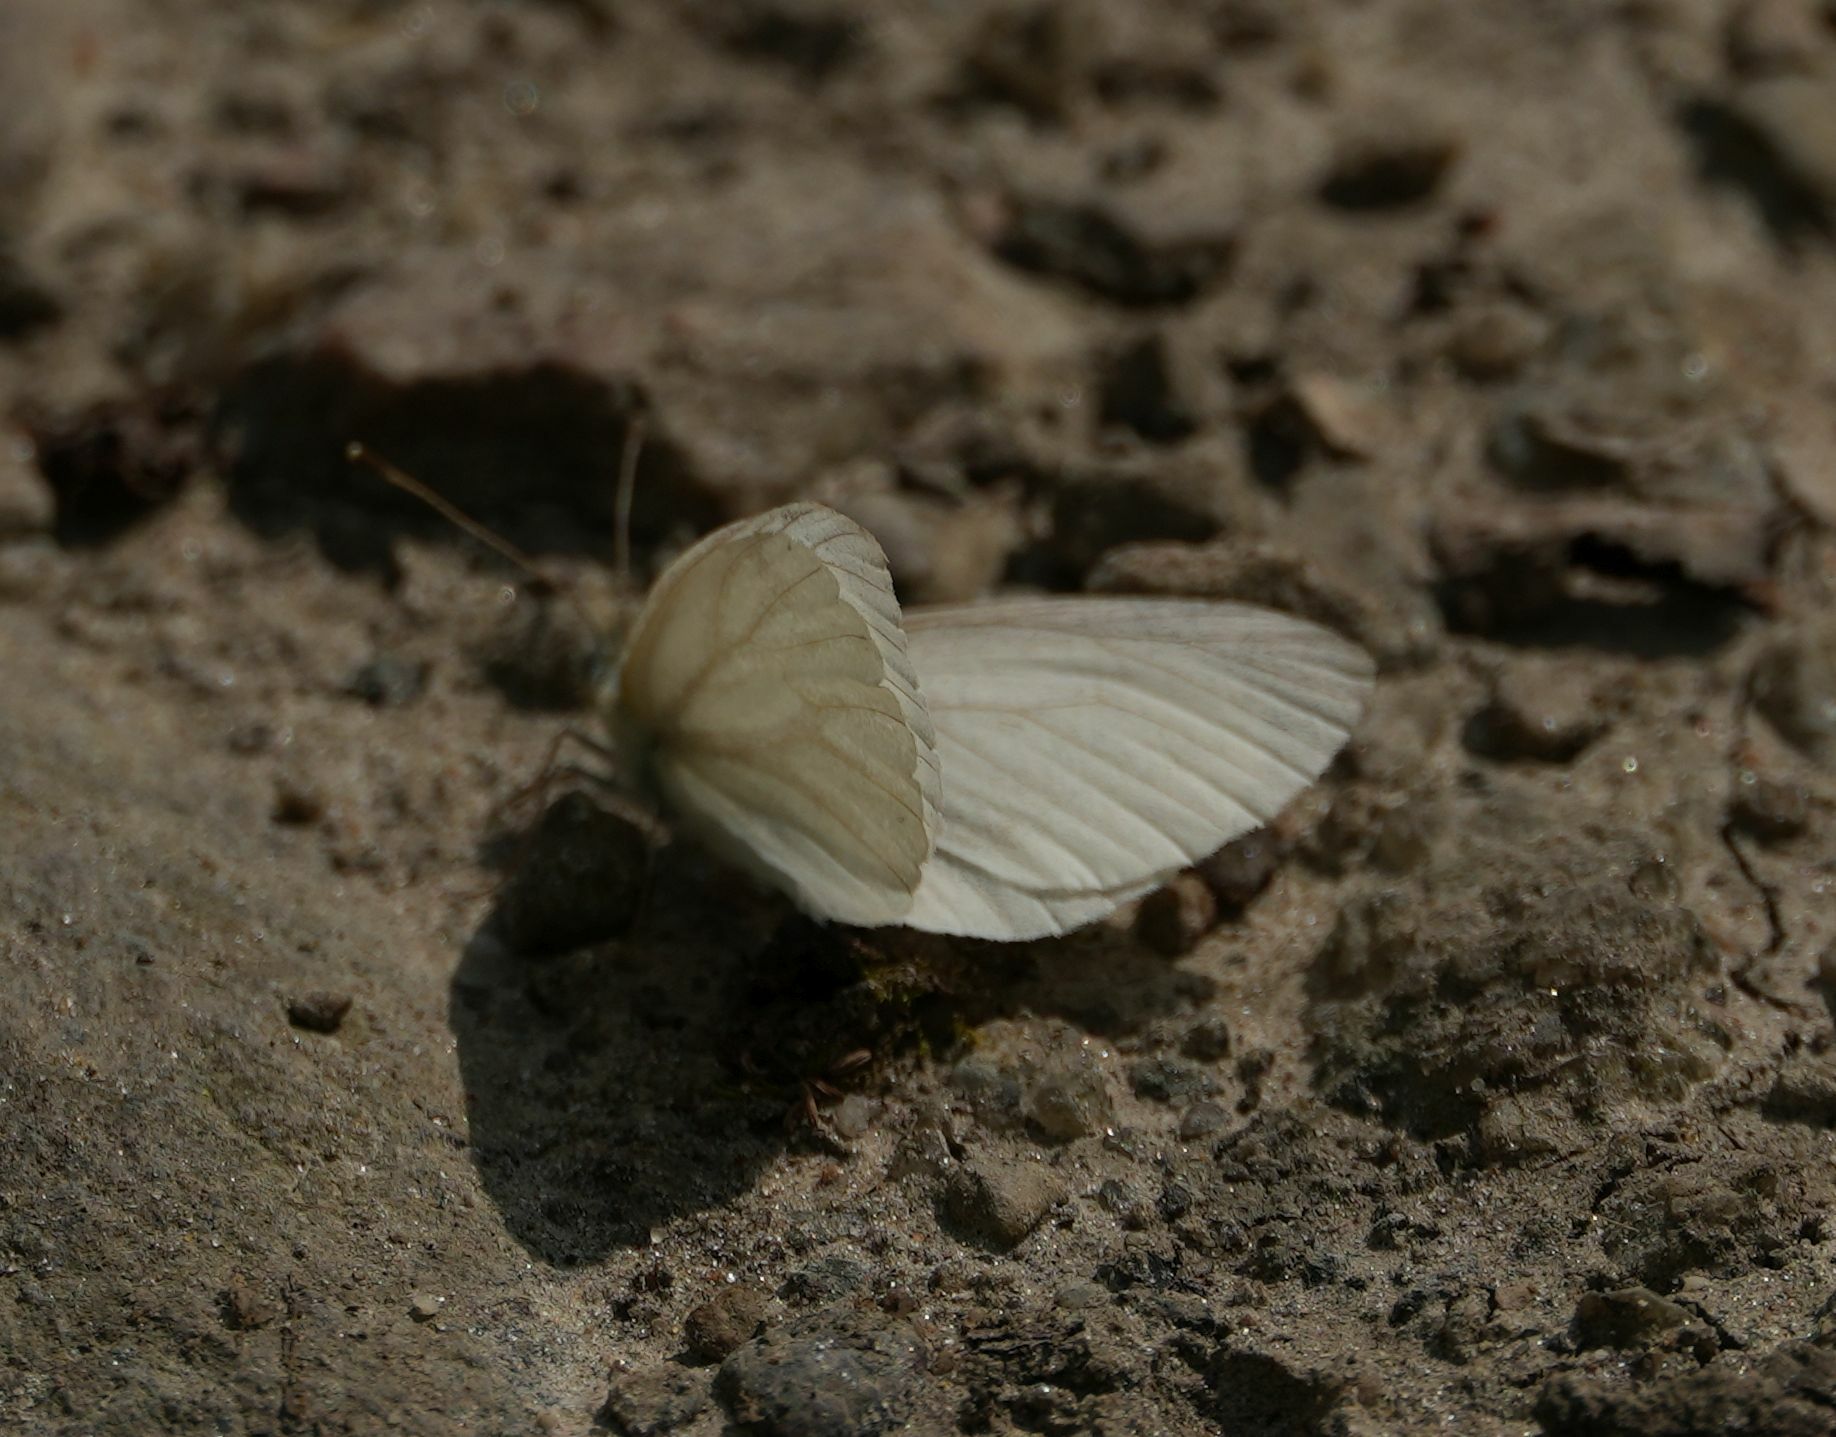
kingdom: Animalia
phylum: Arthropoda
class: Insecta
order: Lepidoptera
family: Pieridae
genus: Pieris
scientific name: Pieris virginiensis
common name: West virginia white
